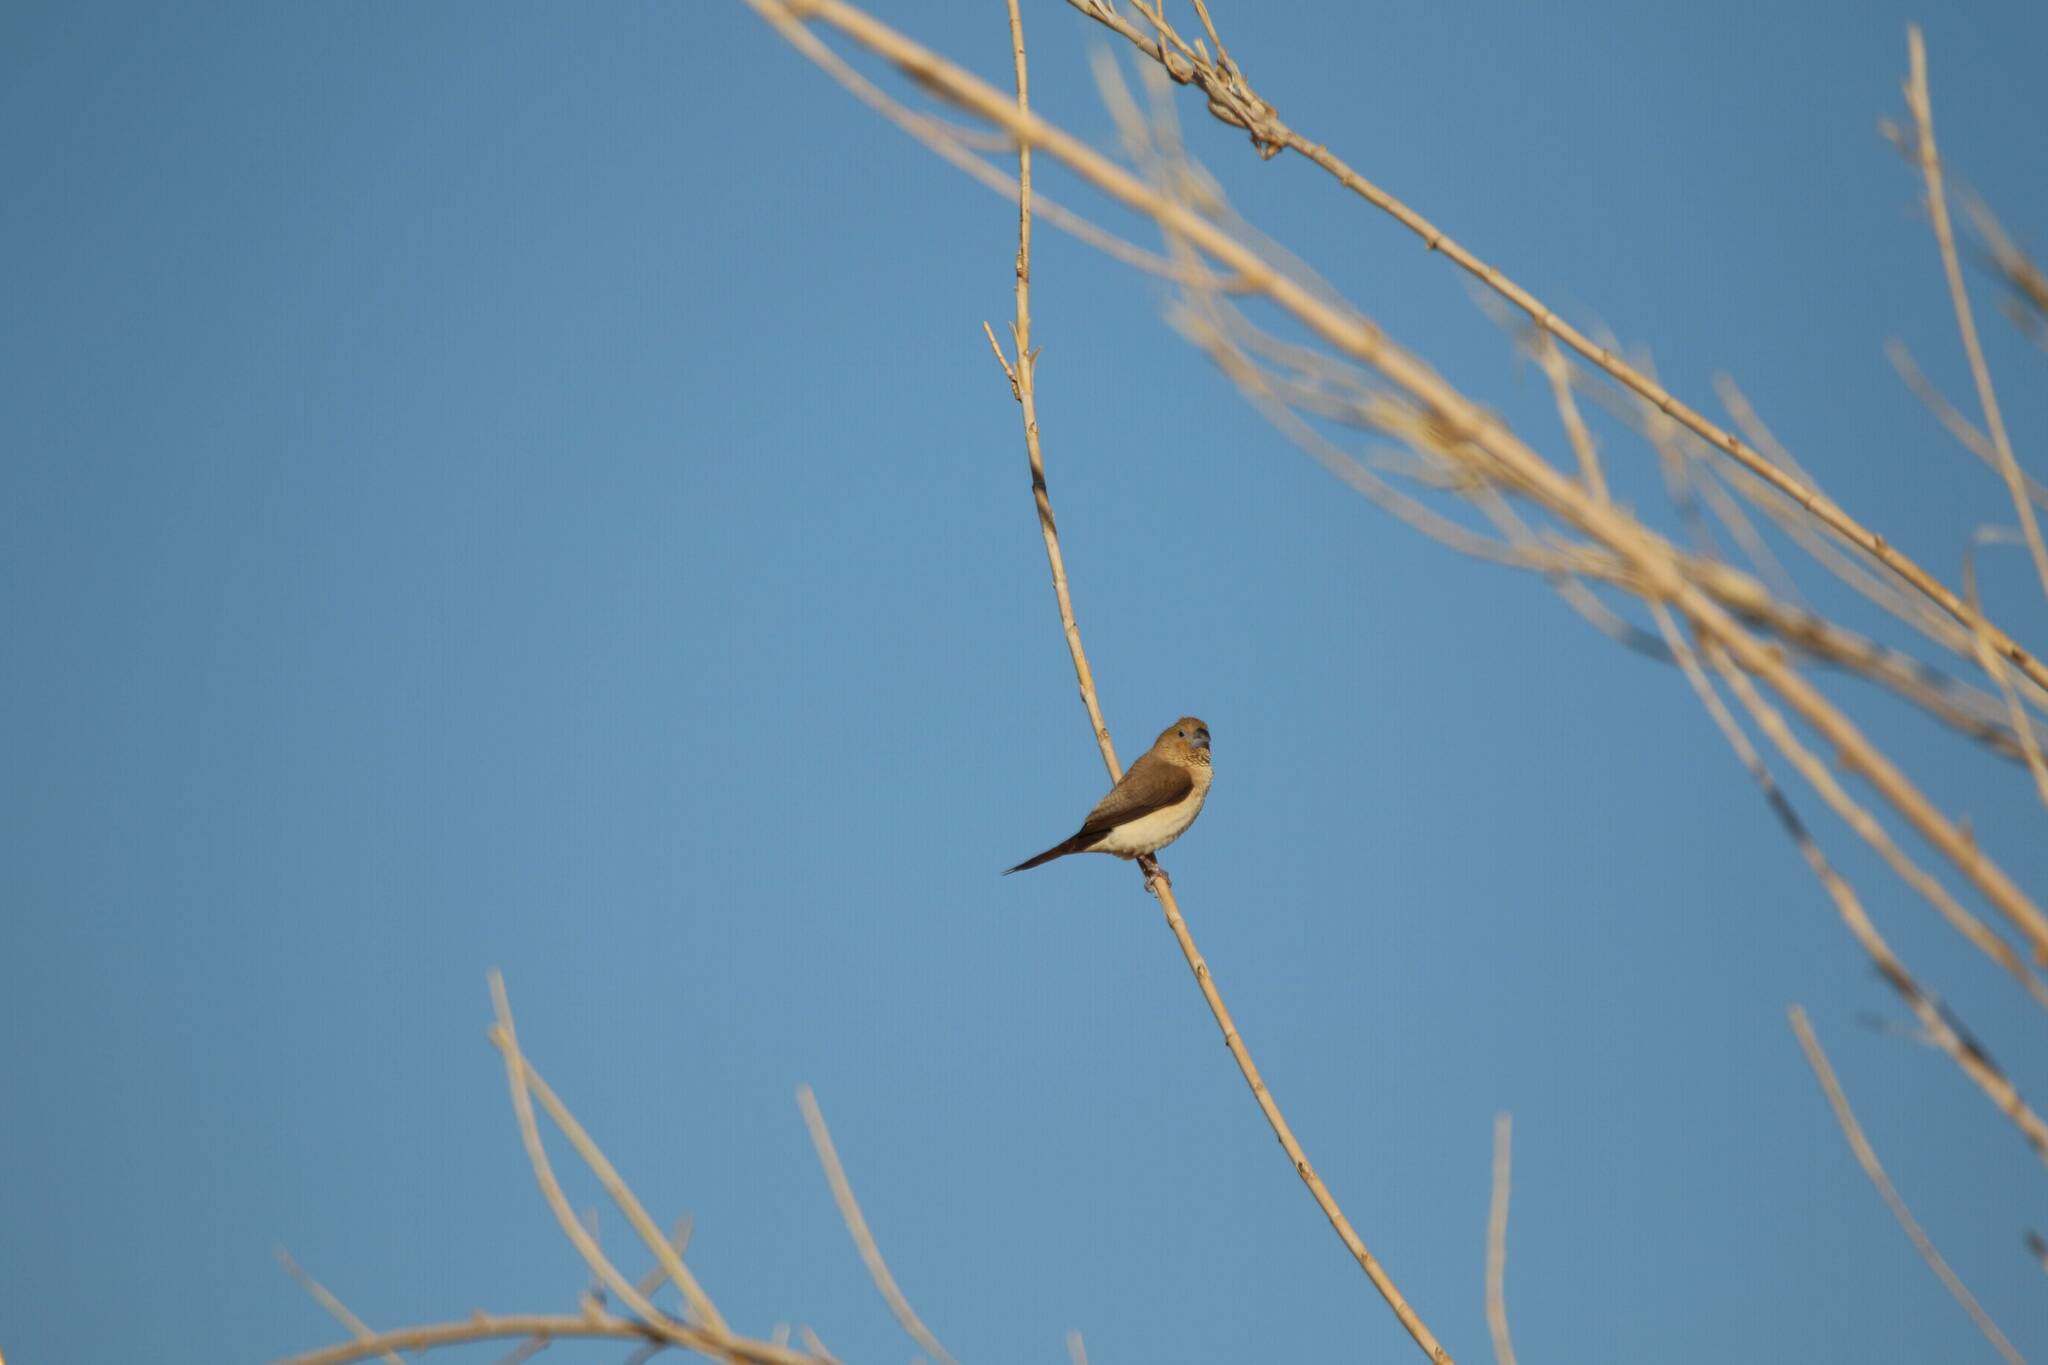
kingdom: Animalia
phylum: Chordata
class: Aves
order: Passeriformes
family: Estrildidae
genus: Euodice
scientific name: Euodice cantans
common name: African silverbill
